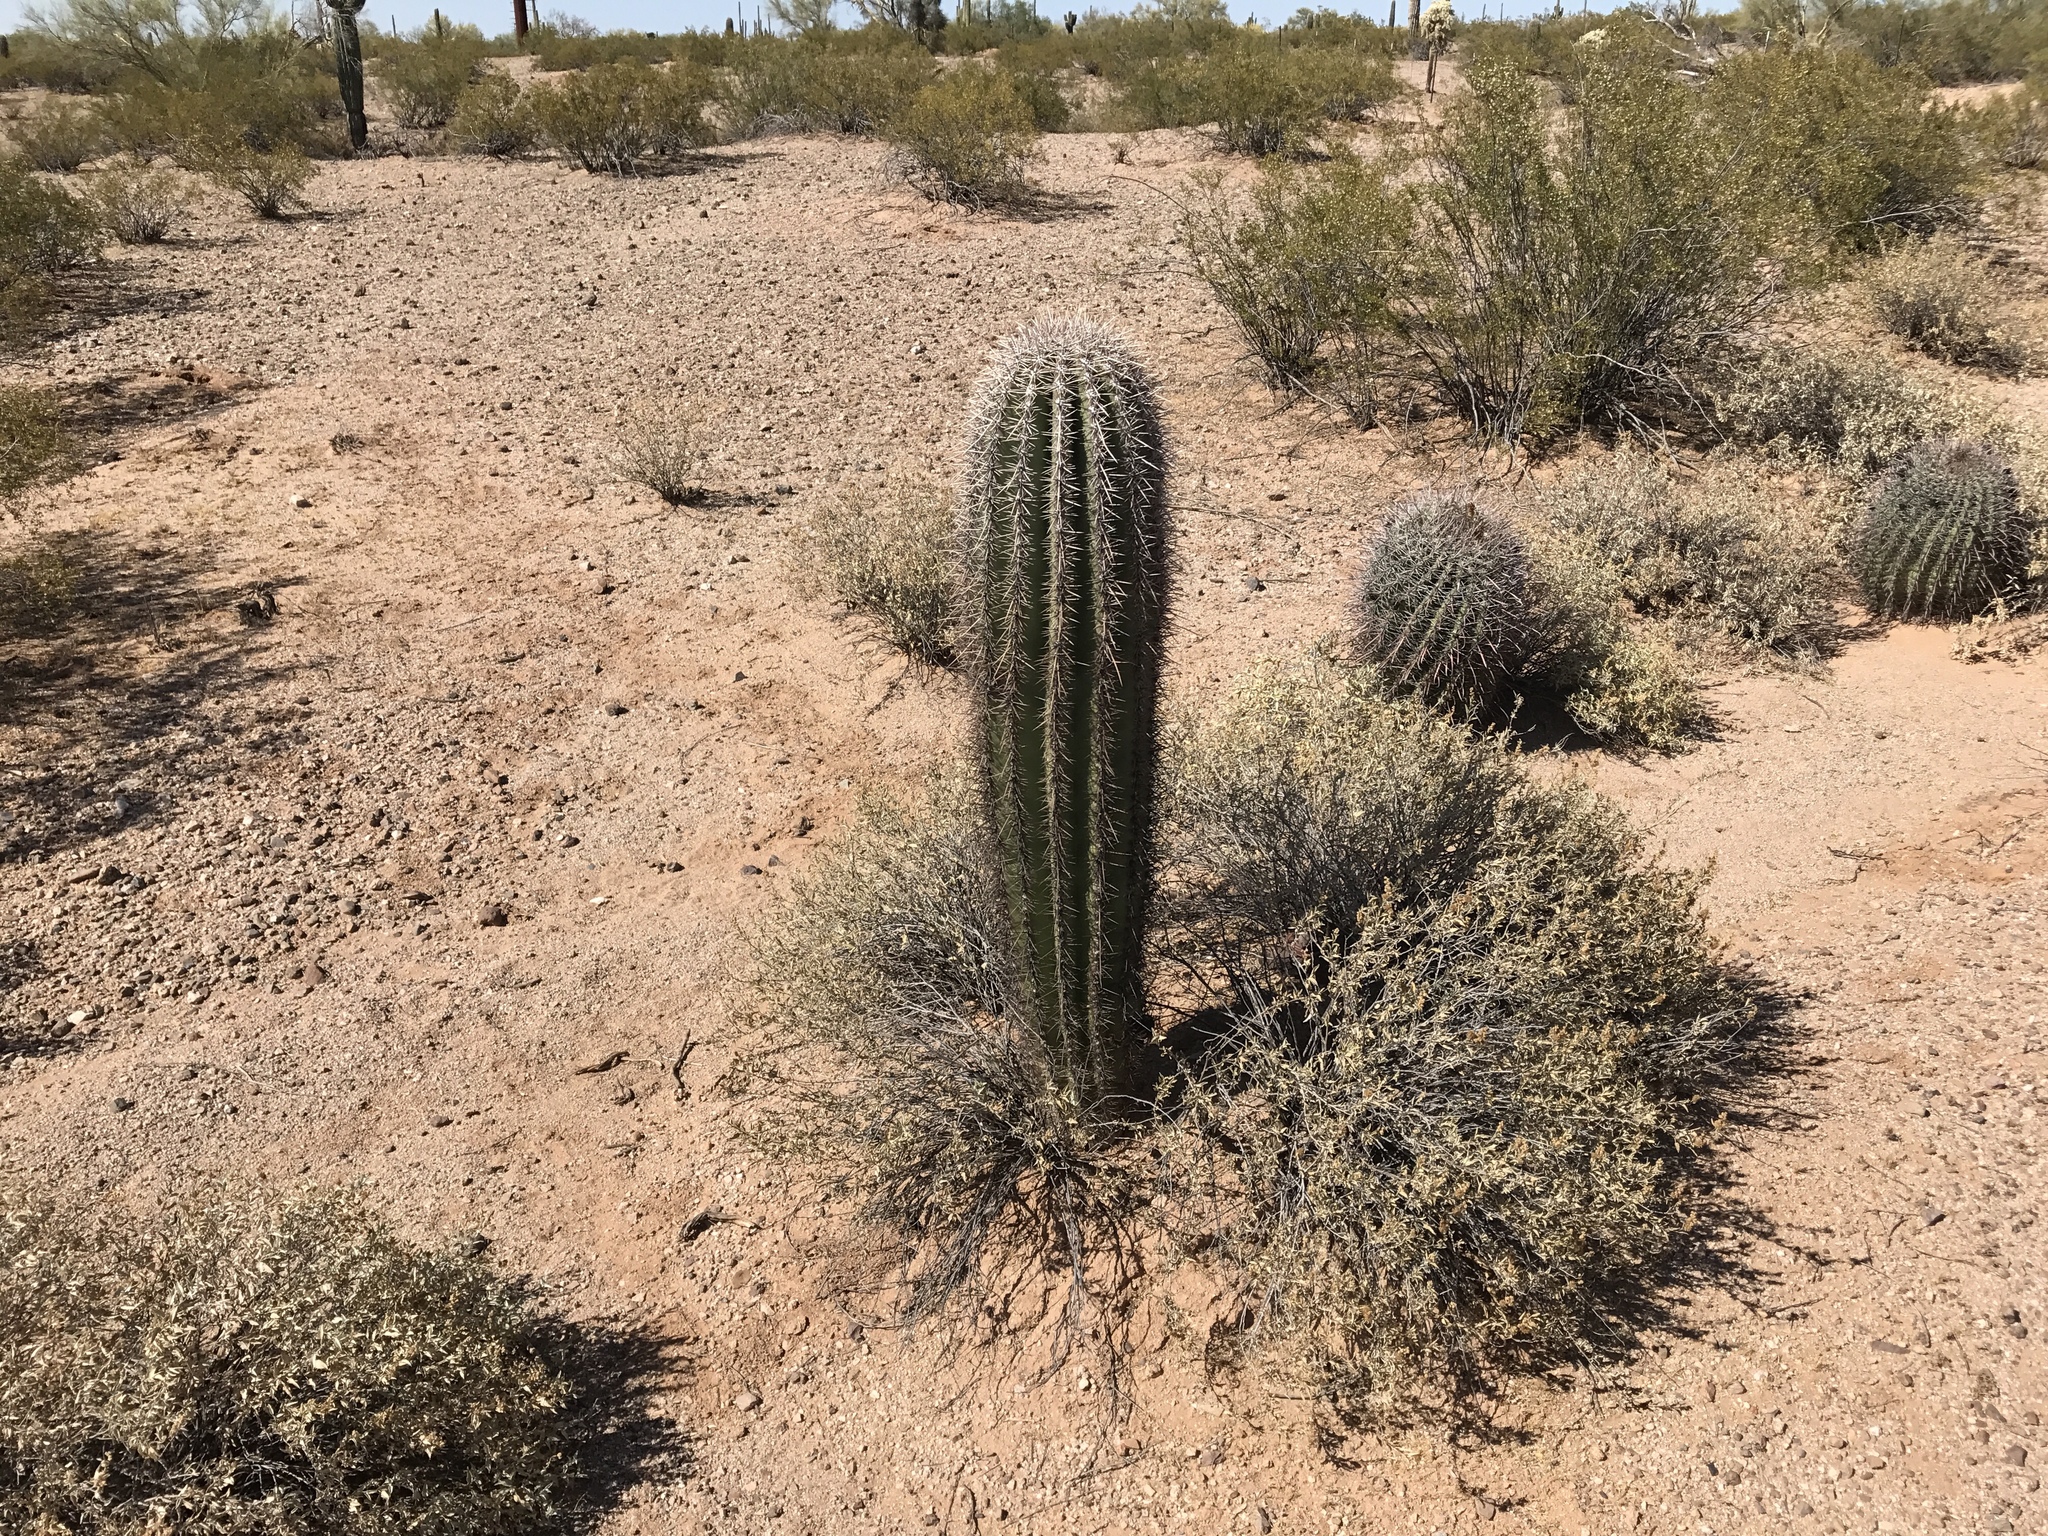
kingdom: Plantae
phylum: Tracheophyta
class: Magnoliopsida
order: Caryophyllales
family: Cactaceae
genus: Carnegiea
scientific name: Carnegiea gigantea
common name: Saguaro
